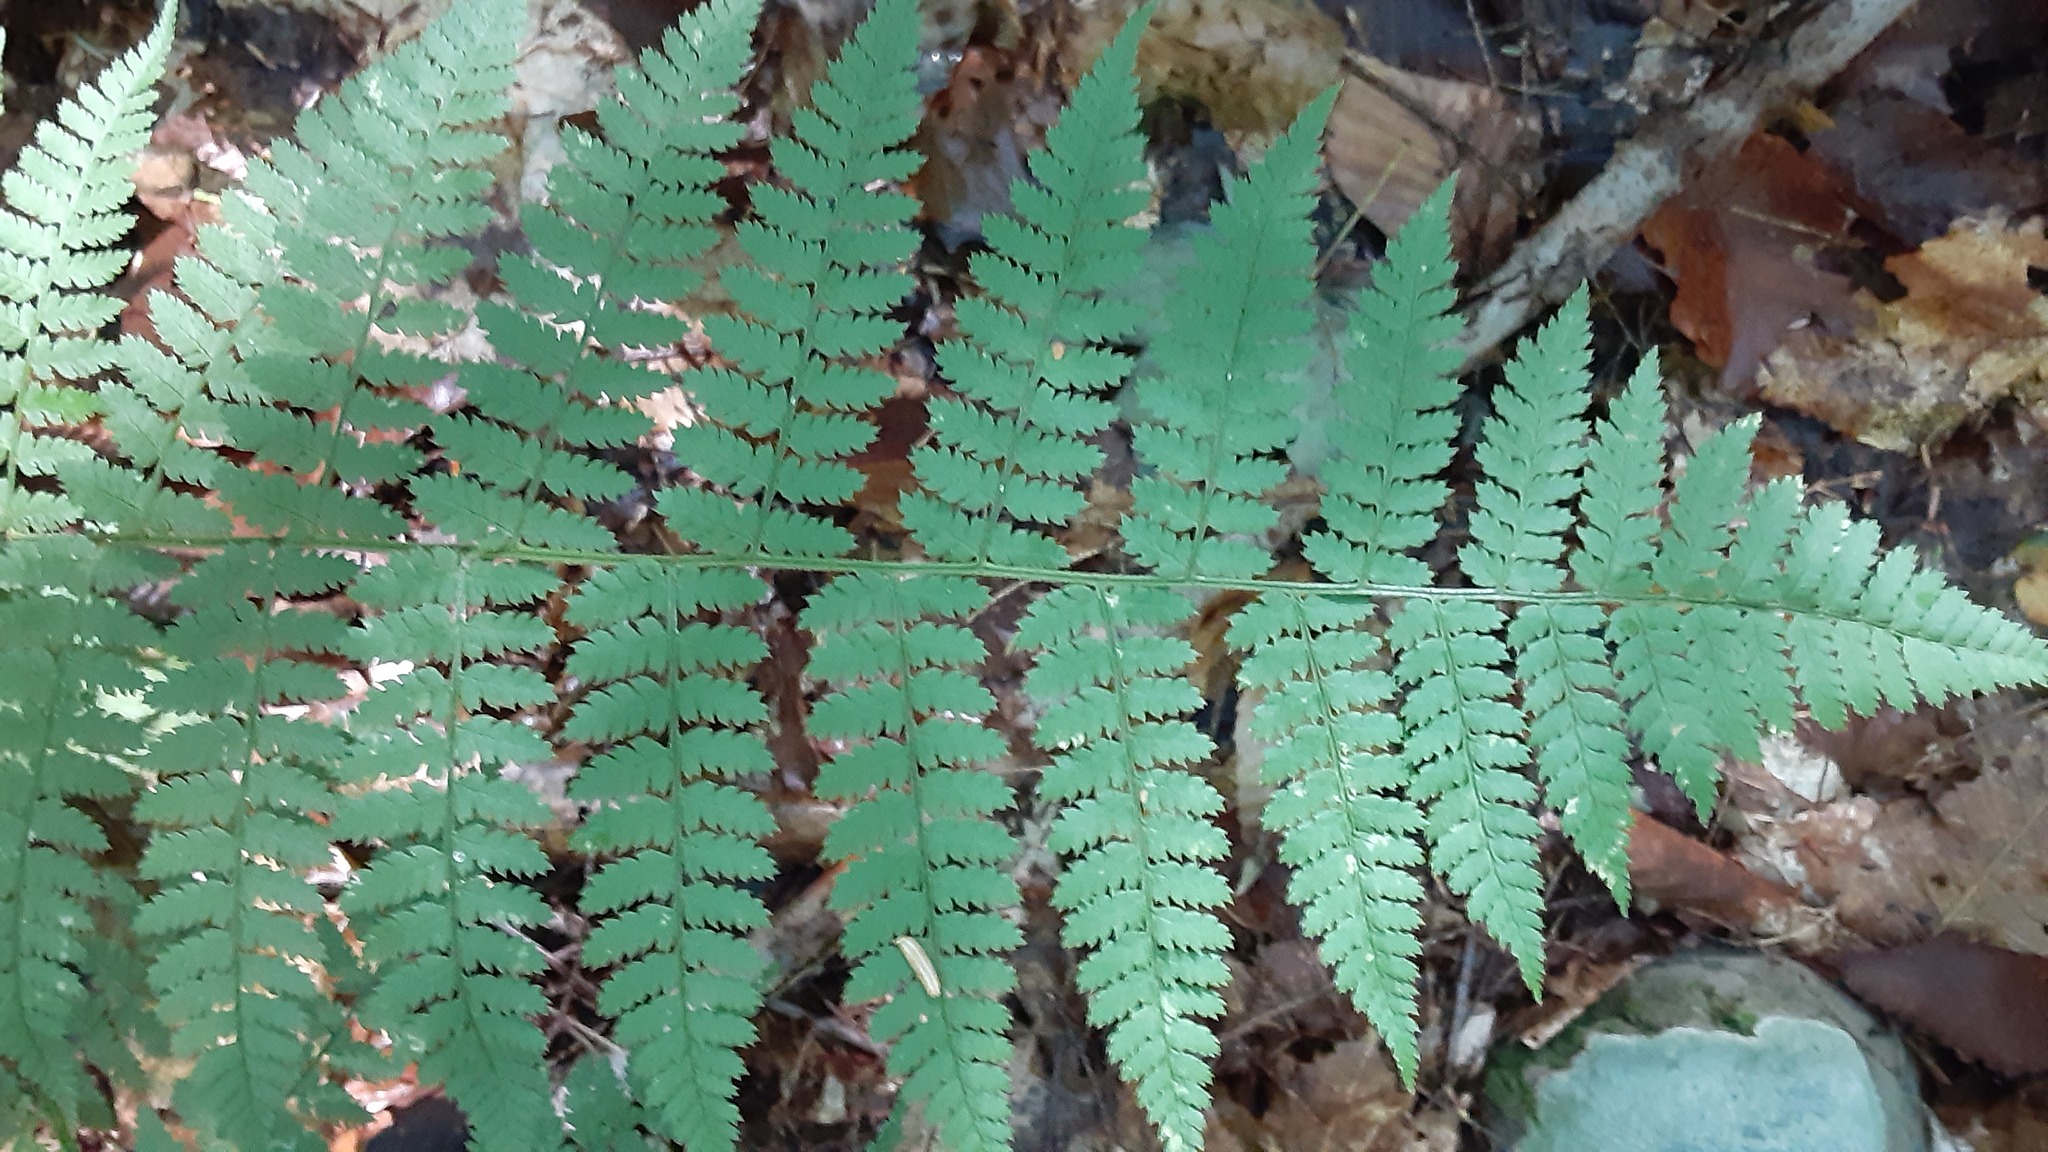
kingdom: Plantae
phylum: Tracheophyta
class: Polypodiopsida
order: Polypodiales
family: Dryopteridaceae
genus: Dryopteris
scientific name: Dryopteris intermedia
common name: Evergreen wood fern
